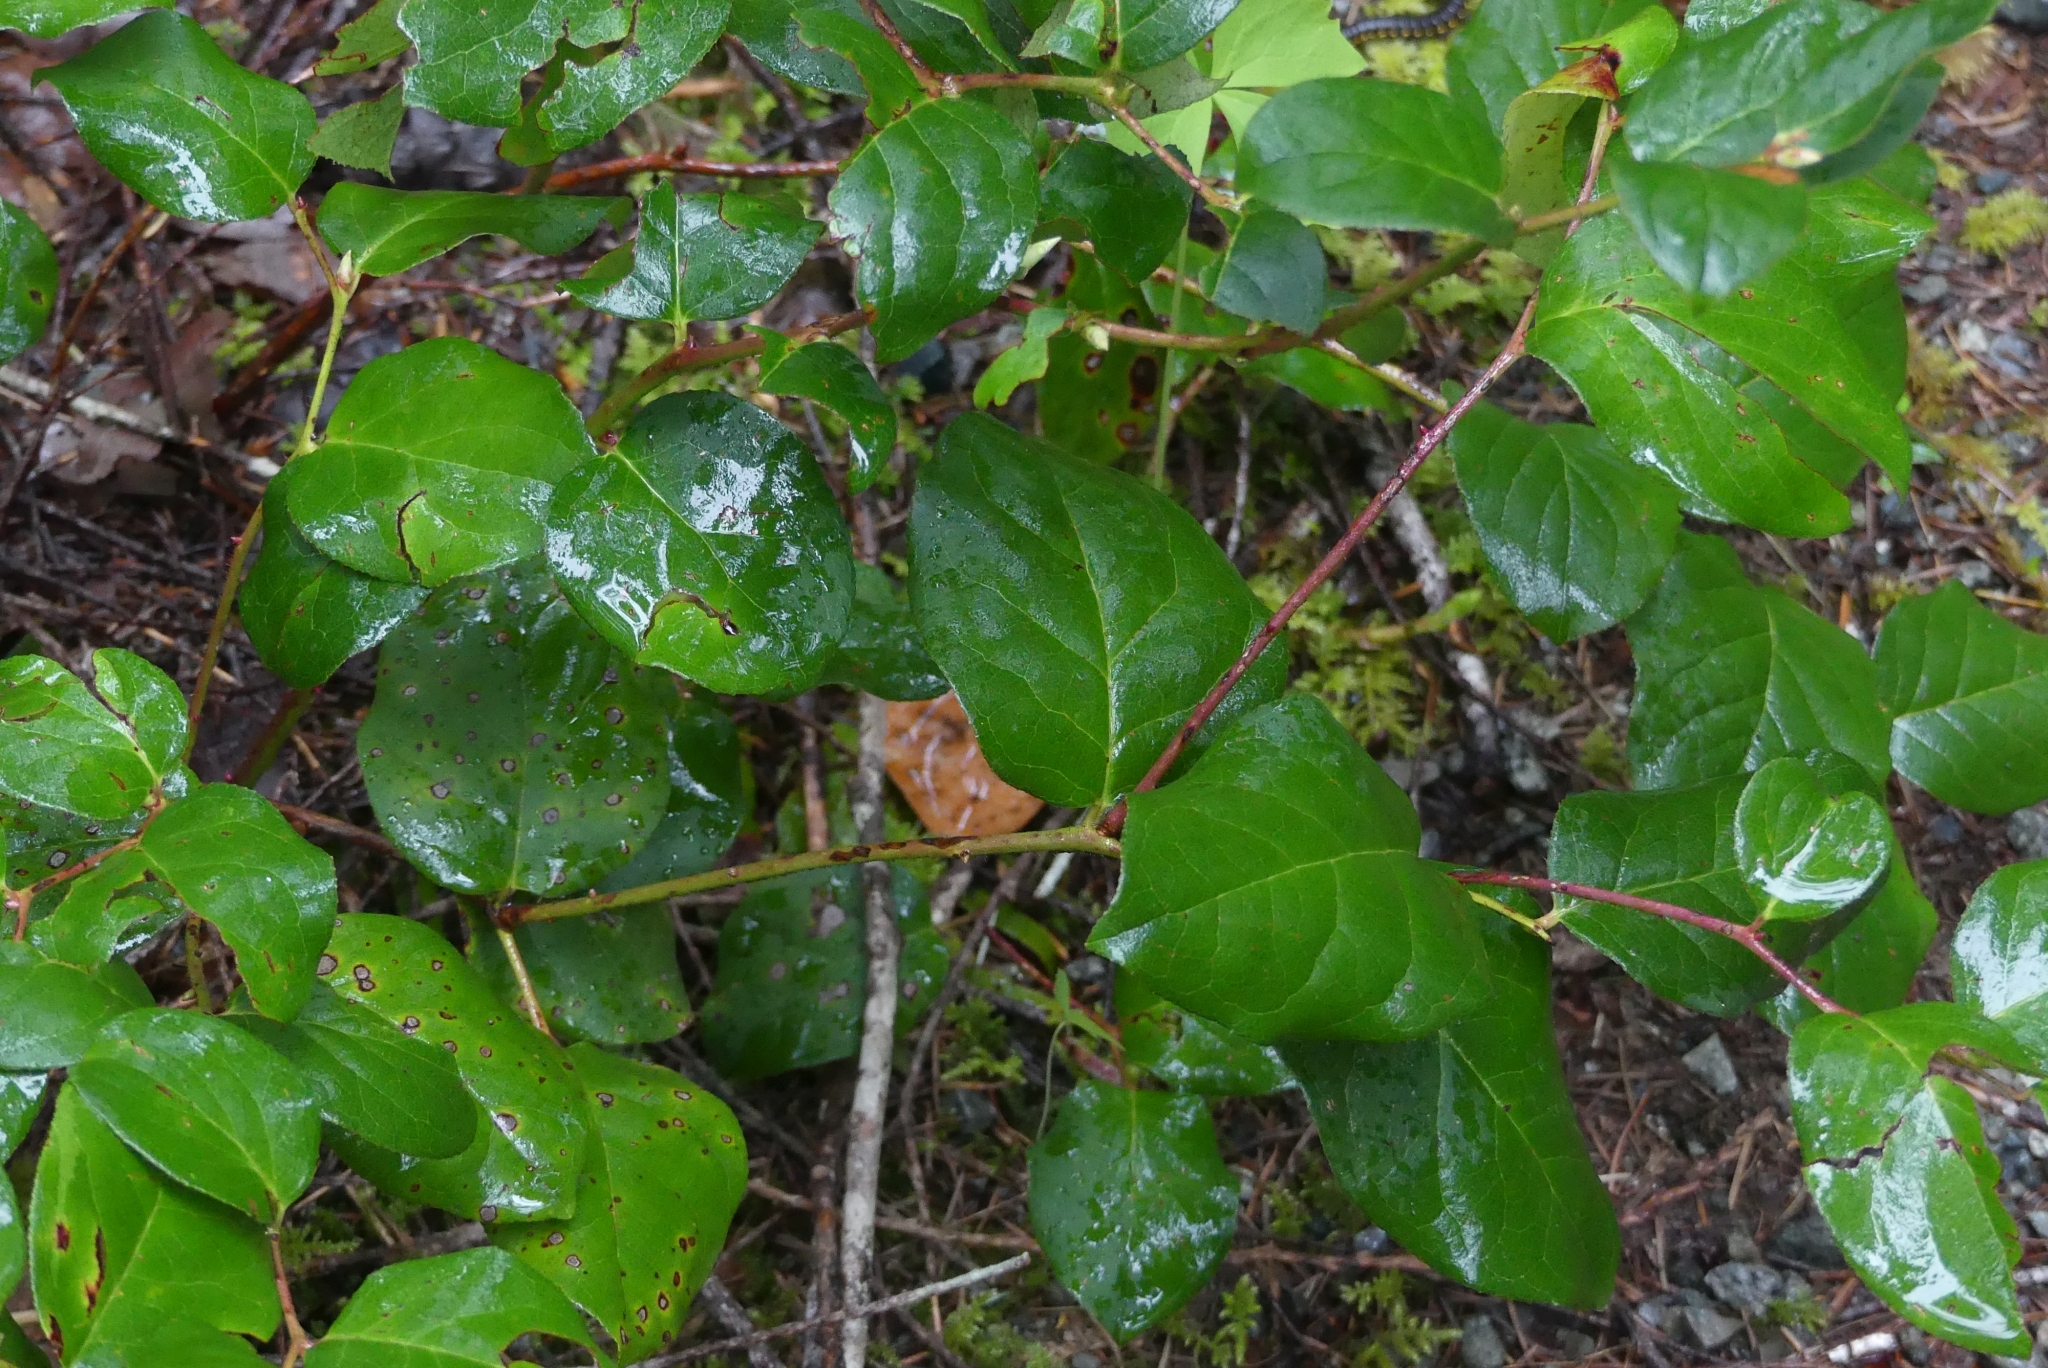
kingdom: Plantae
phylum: Tracheophyta
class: Magnoliopsida
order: Ericales
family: Ericaceae
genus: Gaultheria
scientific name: Gaultheria shallon
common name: Shallon
